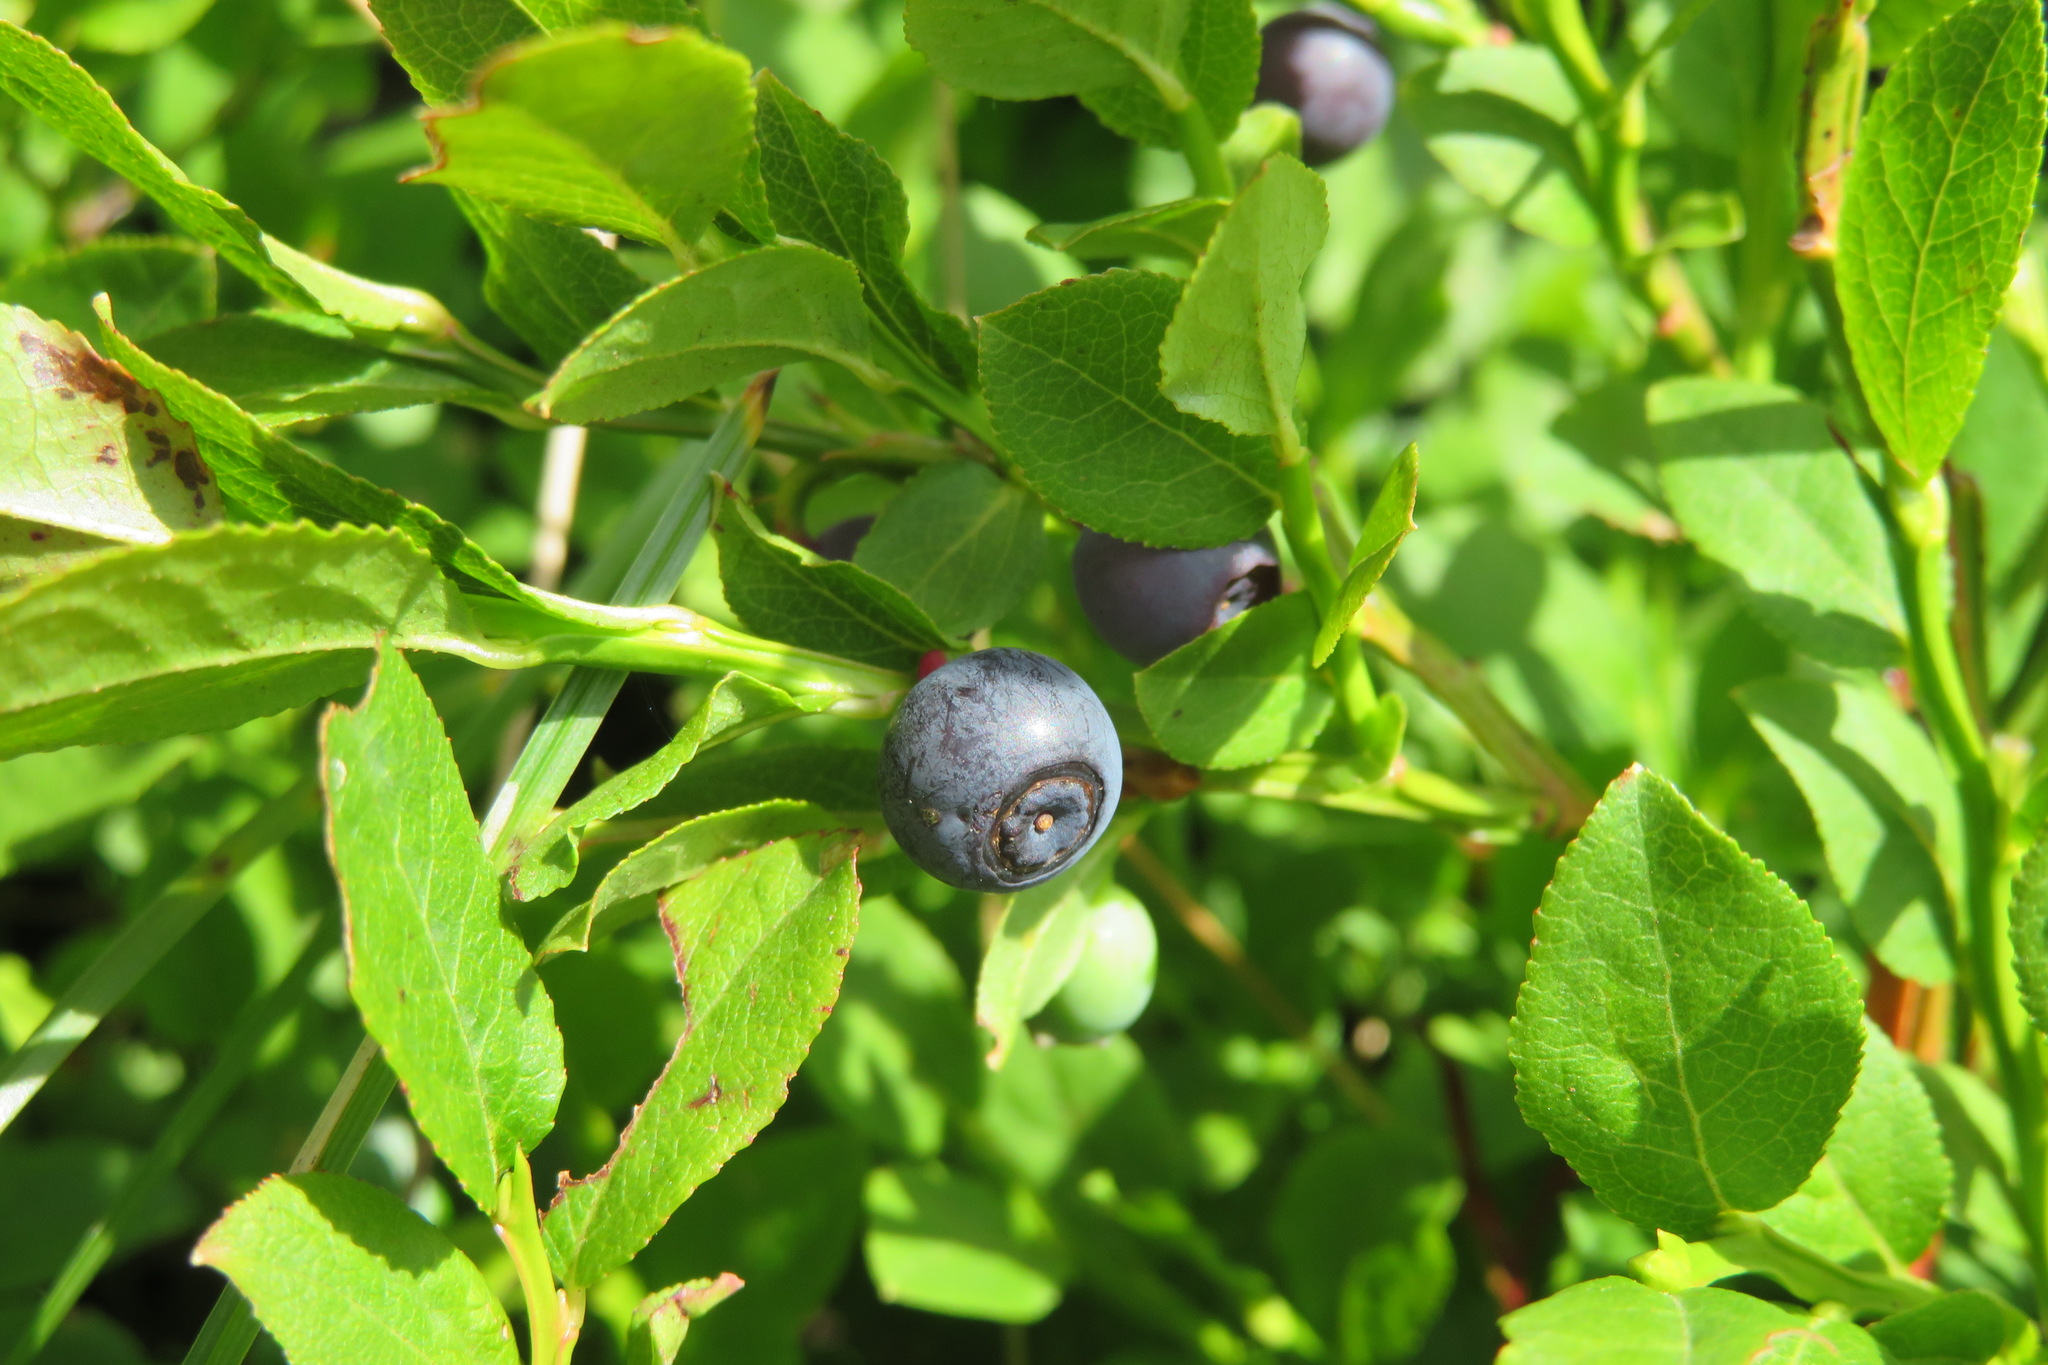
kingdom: Plantae
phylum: Tracheophyta
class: Magnoliopsida
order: Ericales
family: Ericaceae
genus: Vaccinium
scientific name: Vaccinium myrtillus
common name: Bilberry
